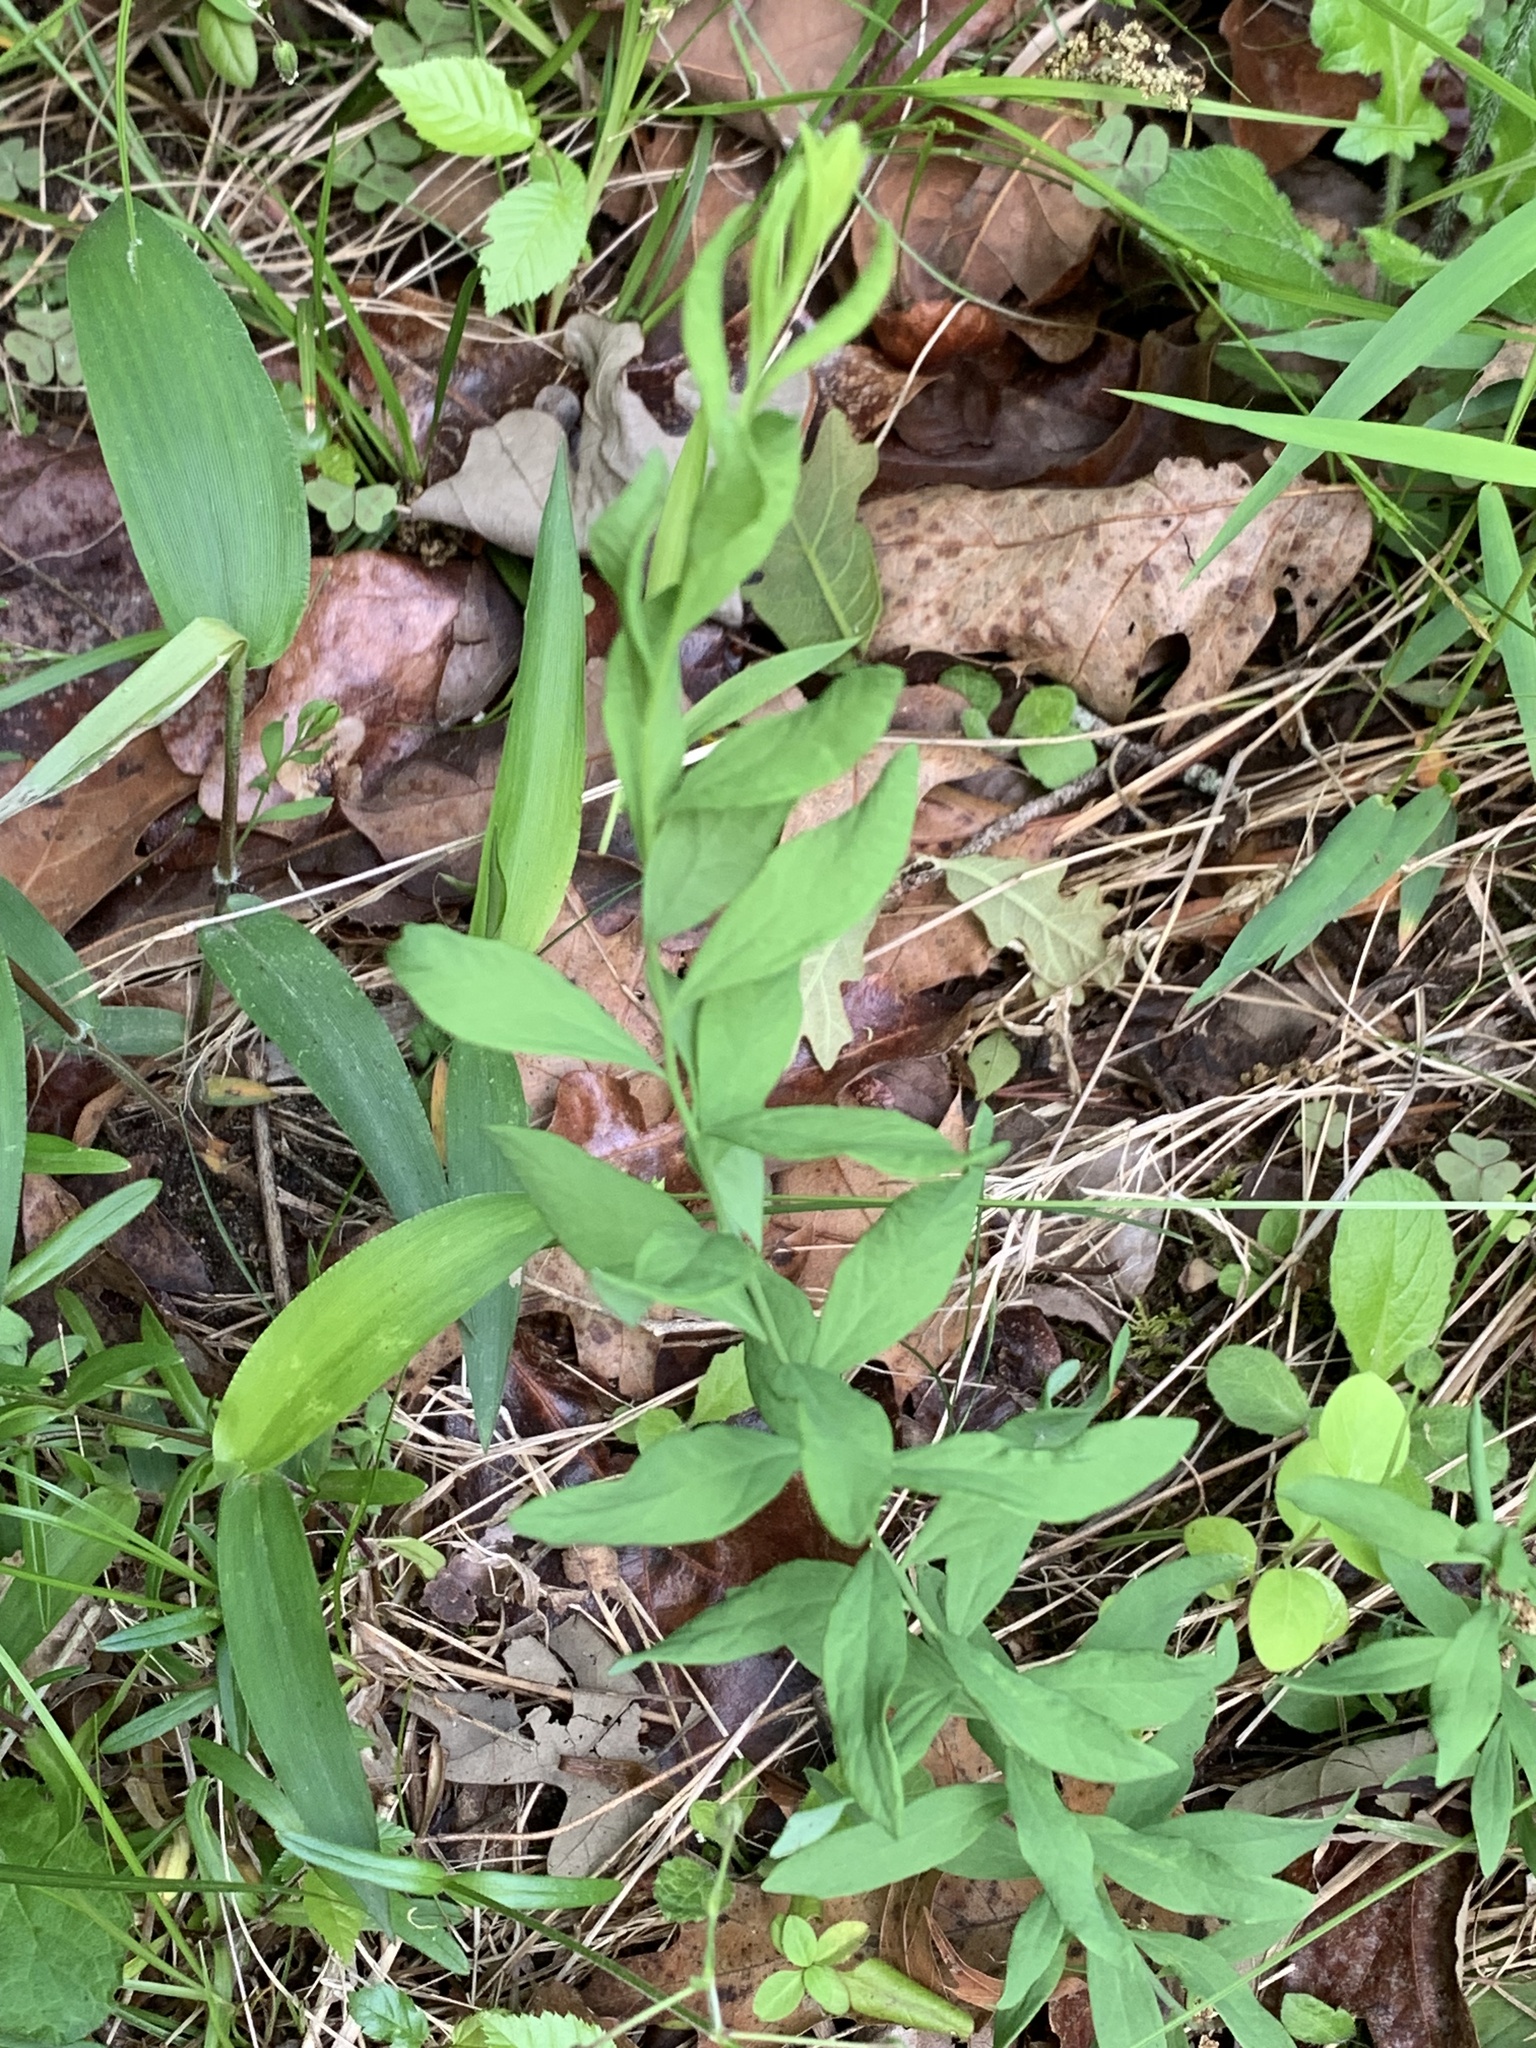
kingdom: Plantae
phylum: Tracheophyta
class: Magnoliopsida
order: Santalales
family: Comandraceae
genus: Comandra
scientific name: Comandra umbellata
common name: Bastard toadflax
